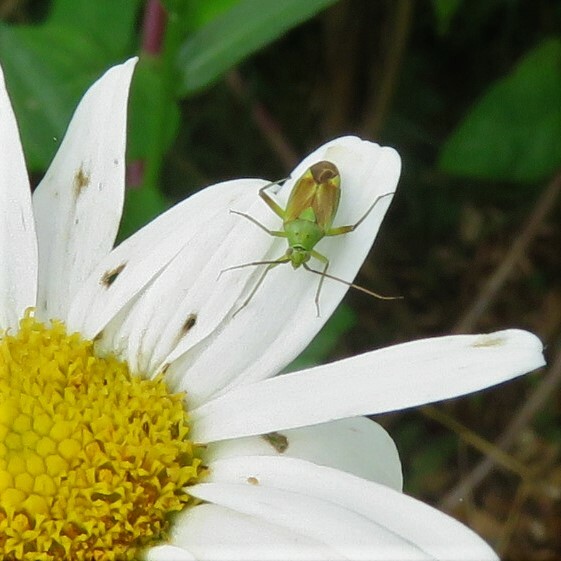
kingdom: Animalia
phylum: Arthropoda
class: Insecta
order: Hemiptera
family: Miridae
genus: Closterotomus
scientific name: Closterotomus norvegicus
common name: Plant bug
